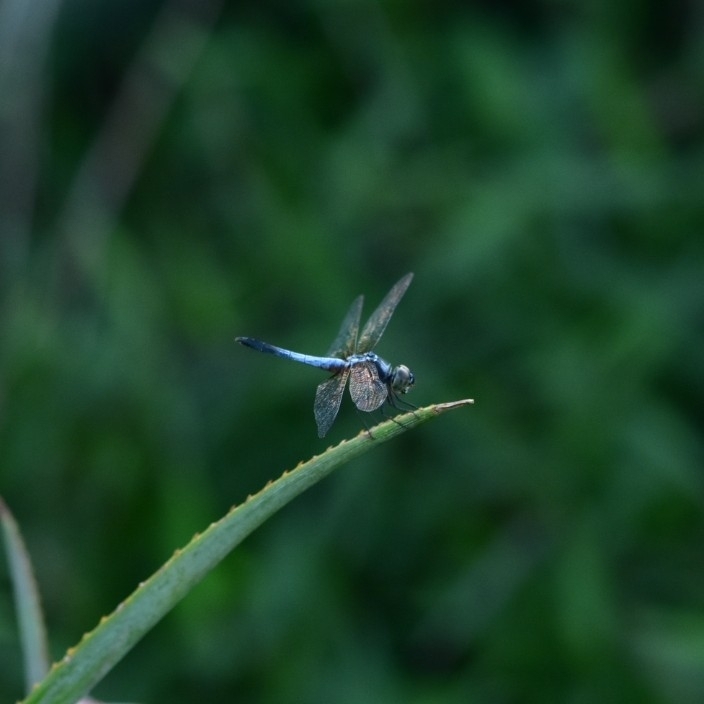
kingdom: Animalia
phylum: Arthropoda
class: Insecta
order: Odonata
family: Libellulidae
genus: Brachydiplax
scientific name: Brachydiplax chalybea
